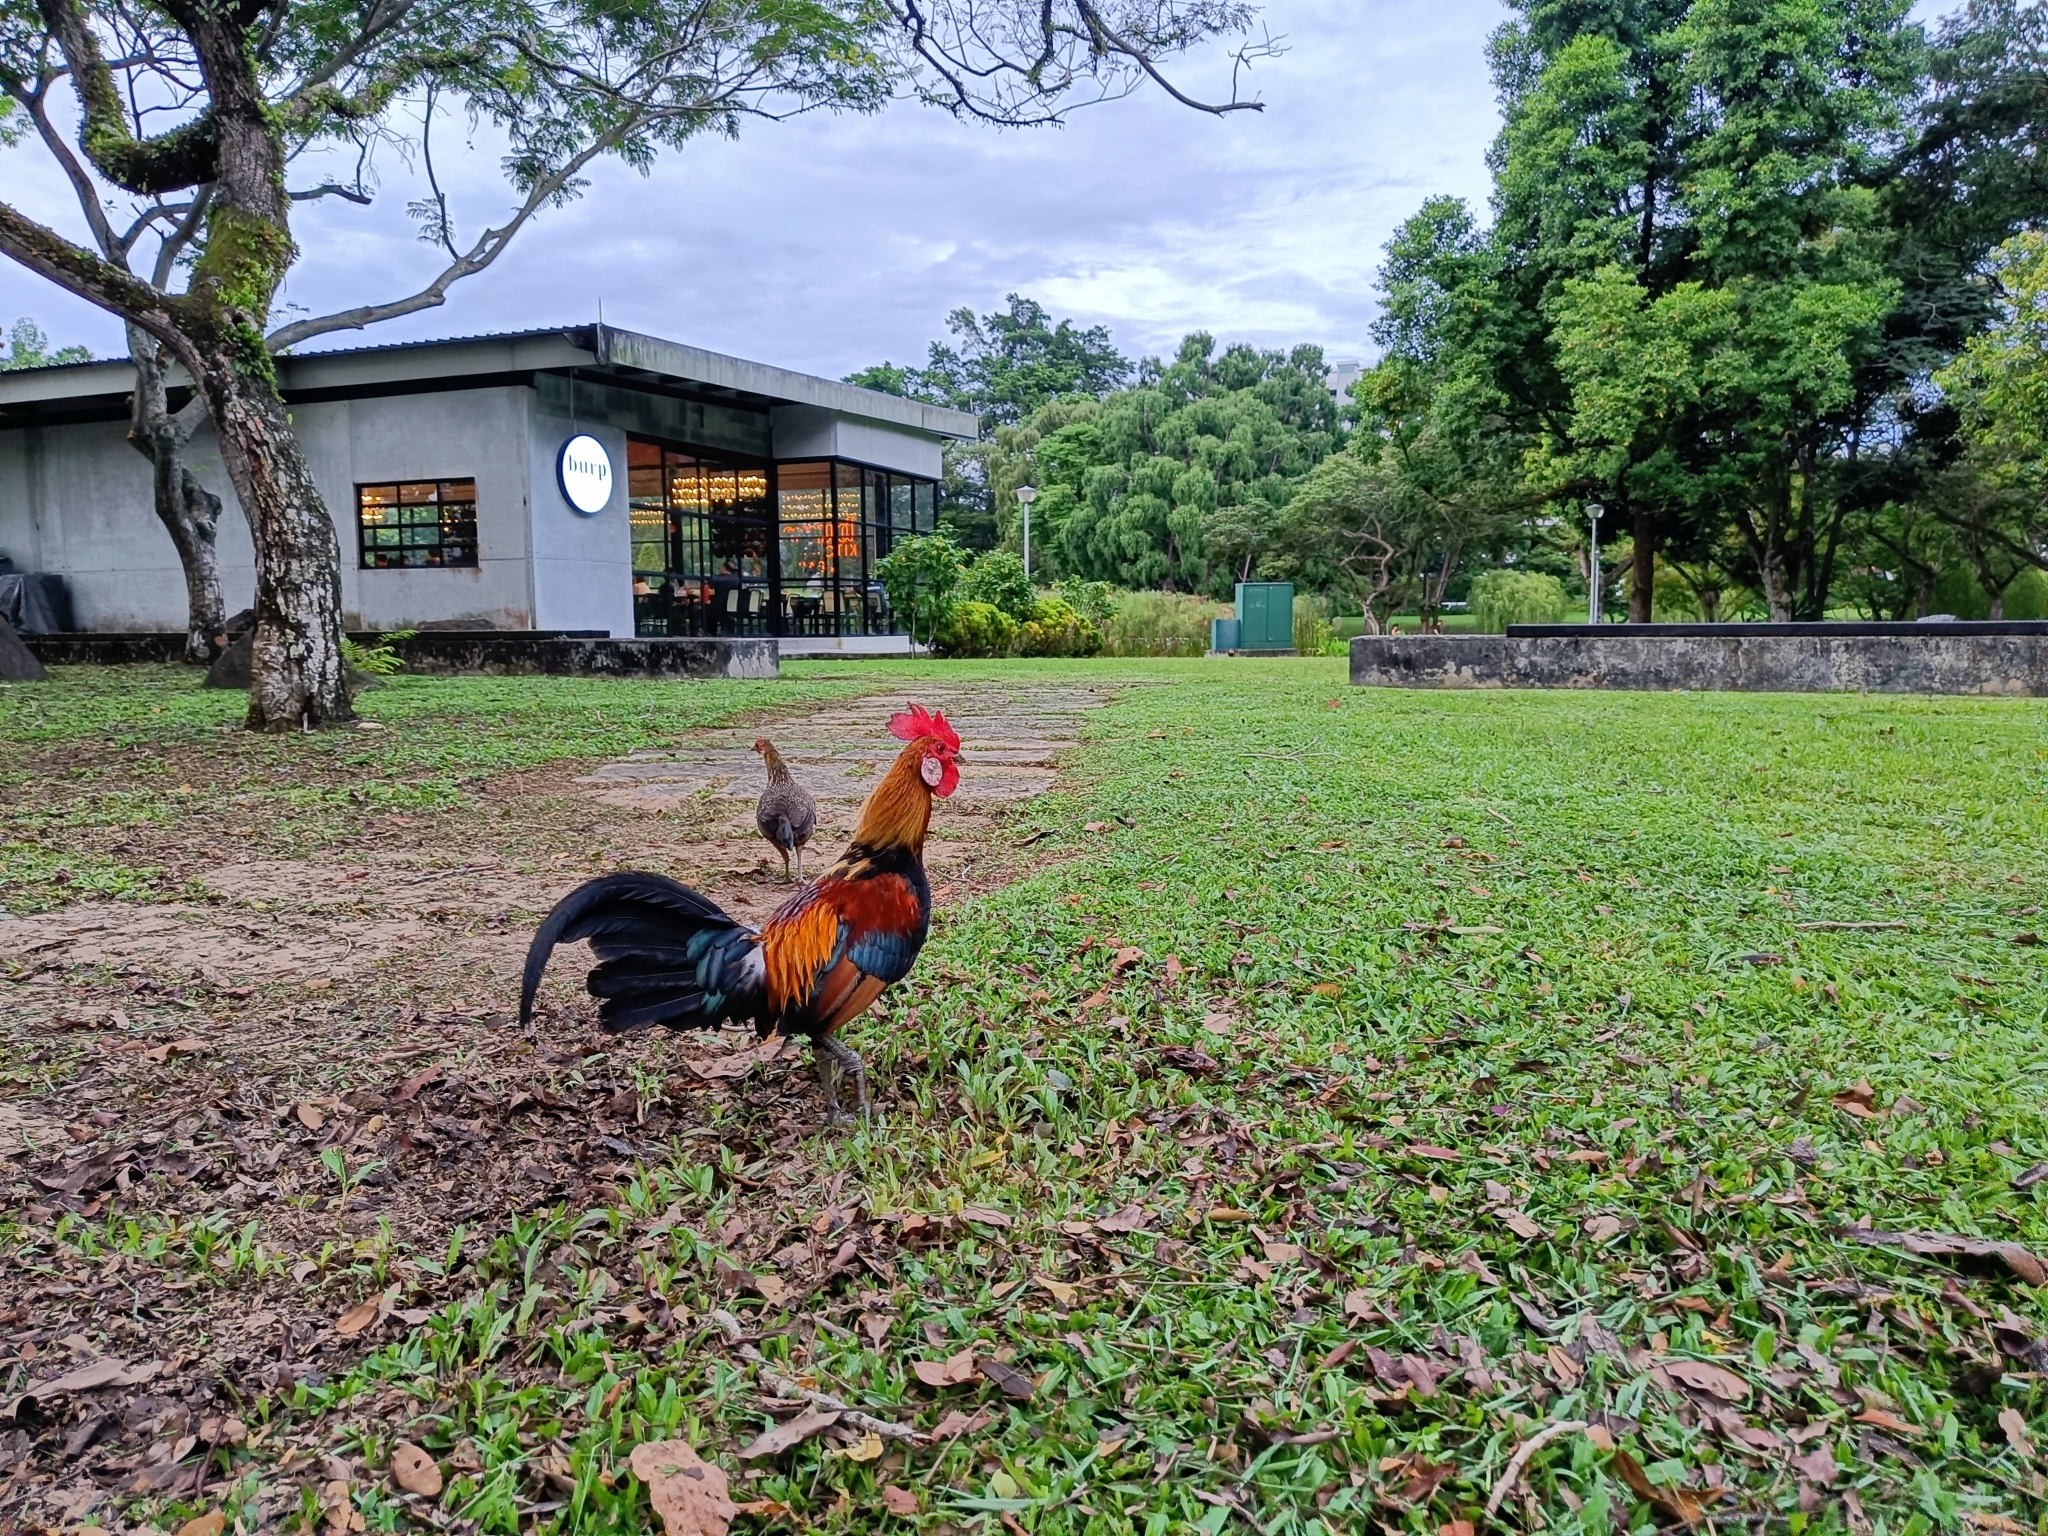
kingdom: Animalia
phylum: Chordata
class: Aves
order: Galliformes
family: Phasianidae
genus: Gallus
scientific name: Gallus gallus
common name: Red junglefowl
